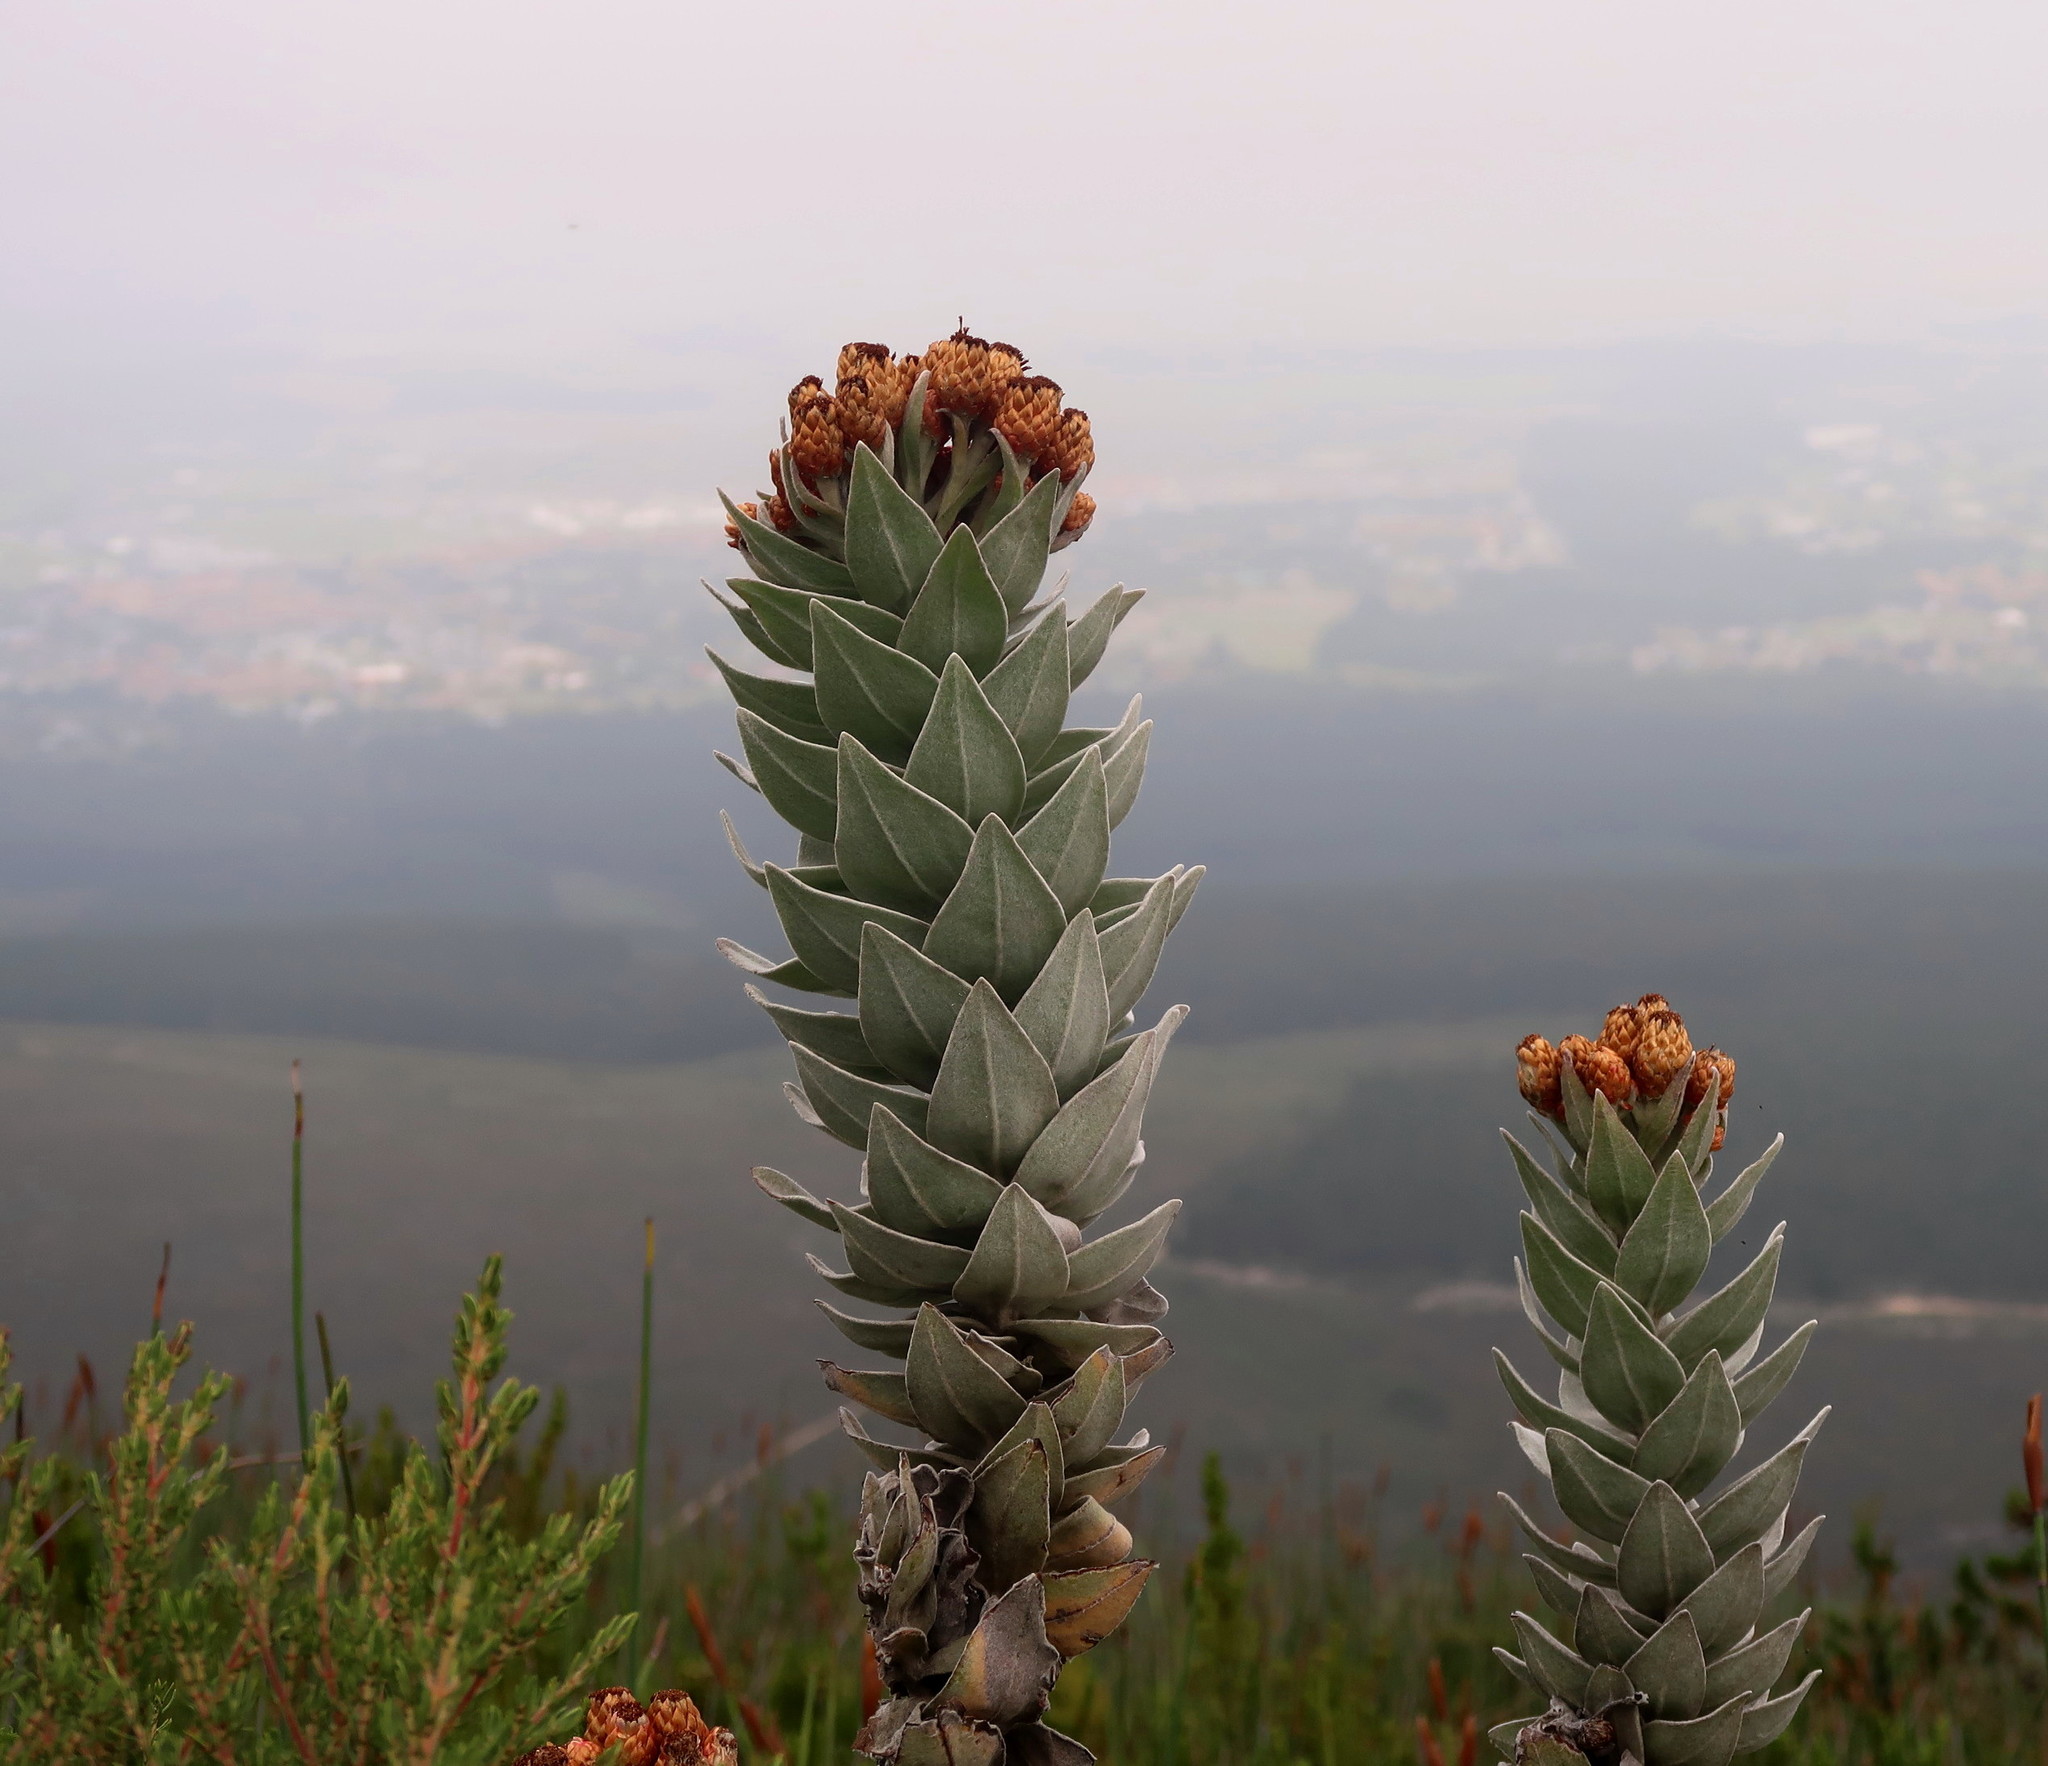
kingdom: Plantae
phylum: Tracheophyta
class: Magnoliopsida
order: Asterales
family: Asteraceae
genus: Syncarpha
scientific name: Syncarpha eximia
